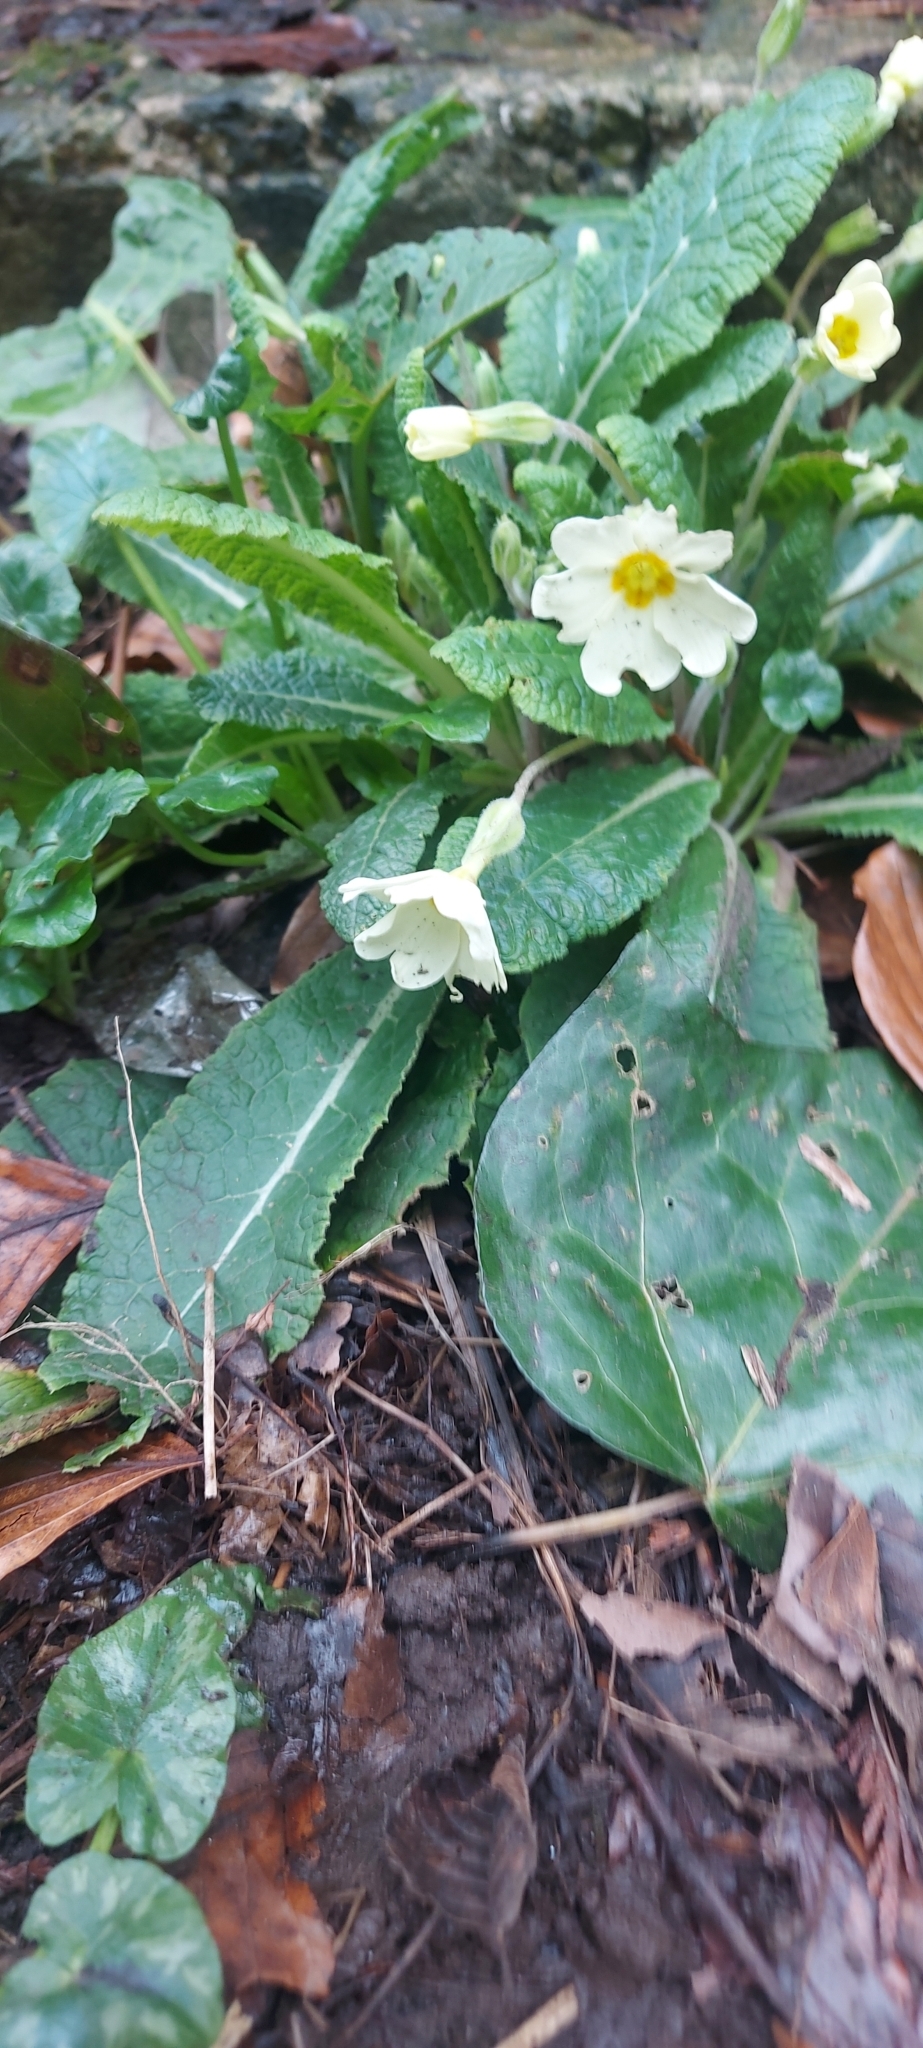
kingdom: Plantae
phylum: Tracheophyta
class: Magnoliopsida
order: Ericales
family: Primulaceae
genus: Primula
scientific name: Primula vulgaris
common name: Primrose
